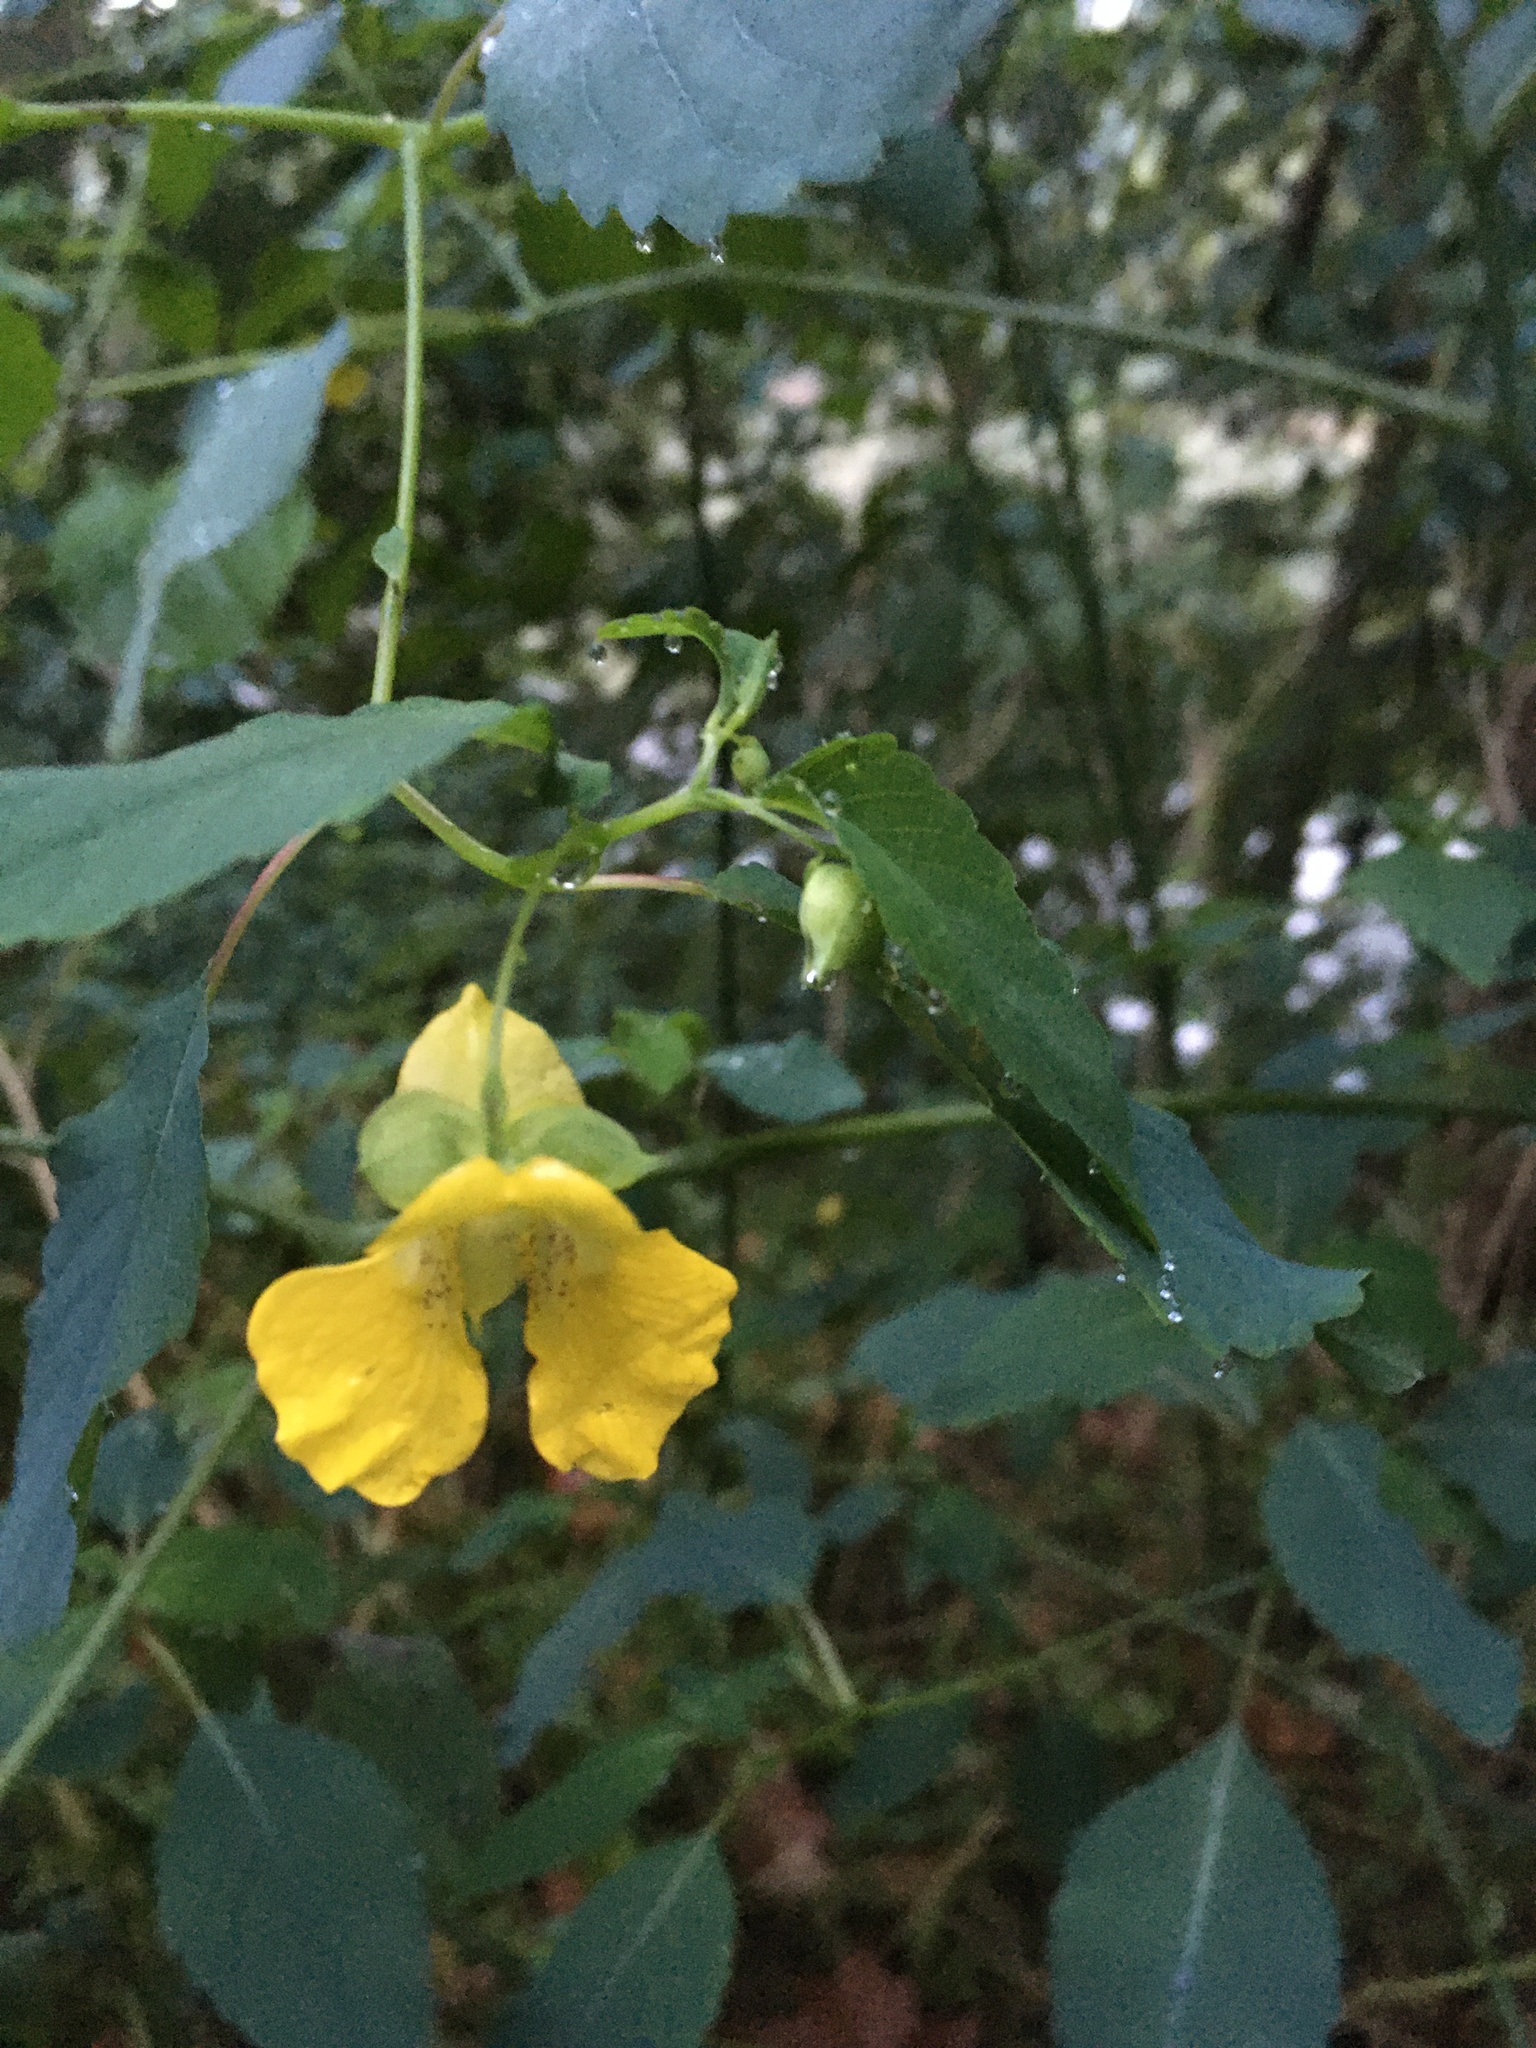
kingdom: Plantae
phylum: Tracheophyta
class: Magnoliopsida
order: Ericales
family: Balsaminaceae
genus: Impatiens
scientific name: Impatiens pallida
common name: Pale snapweed
